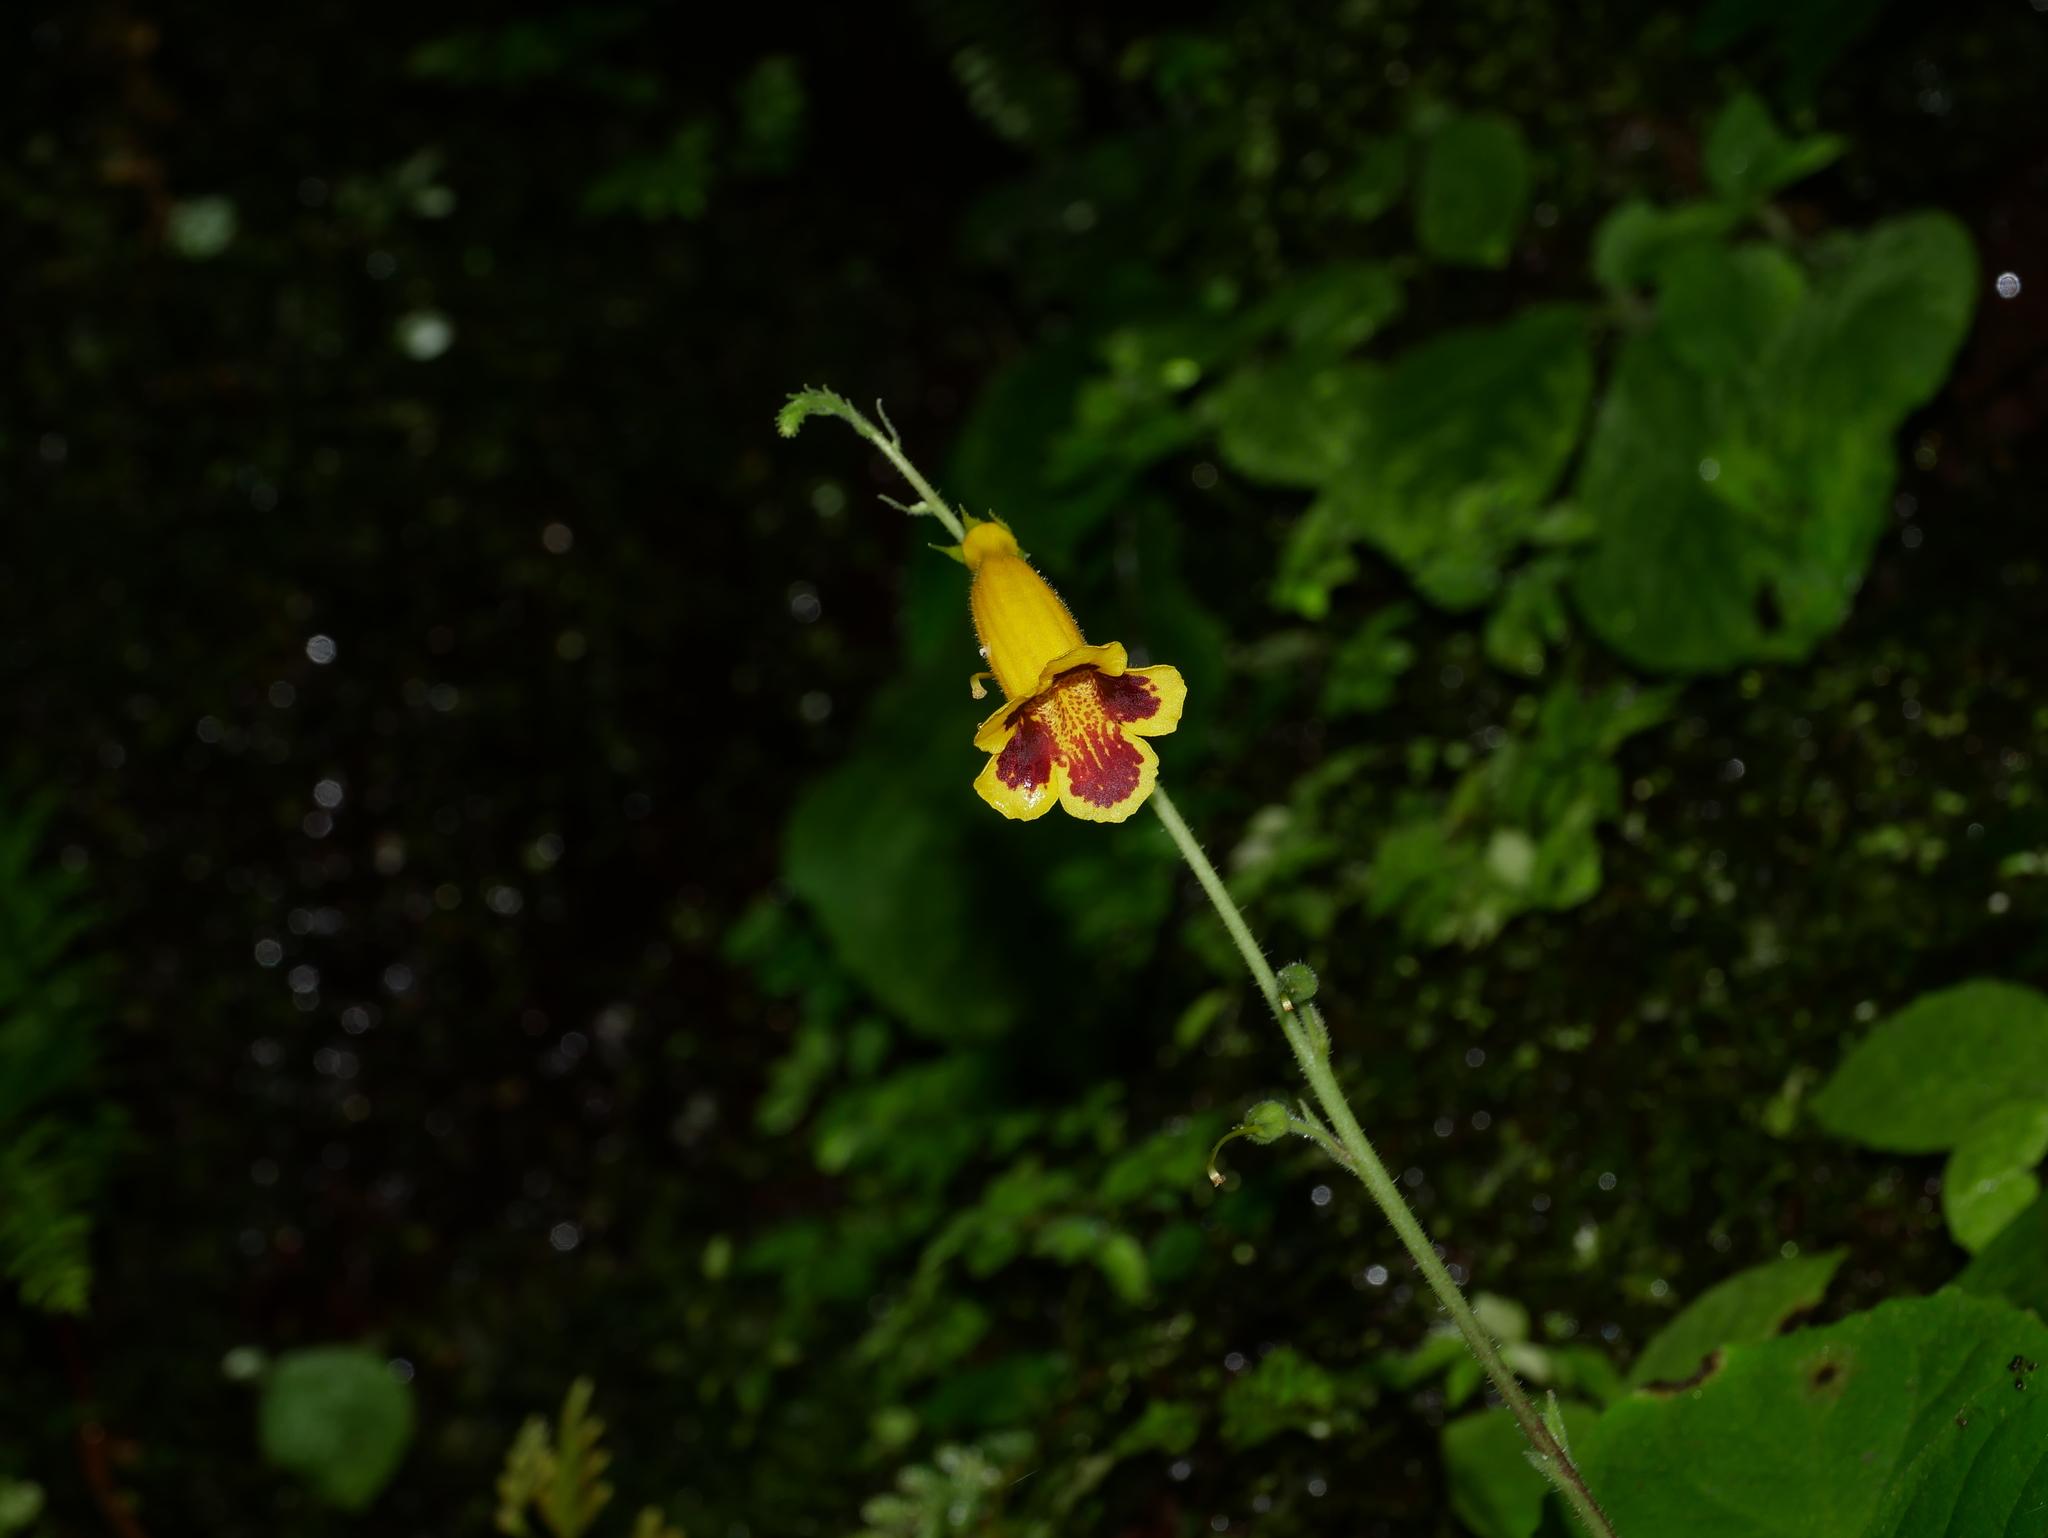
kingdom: Plantae
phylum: Tracheophyta
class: Magnoliopsida
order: Lamiales
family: Gesneriaceae
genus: Titanotrichum
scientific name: Titanotrichum oldhamii
